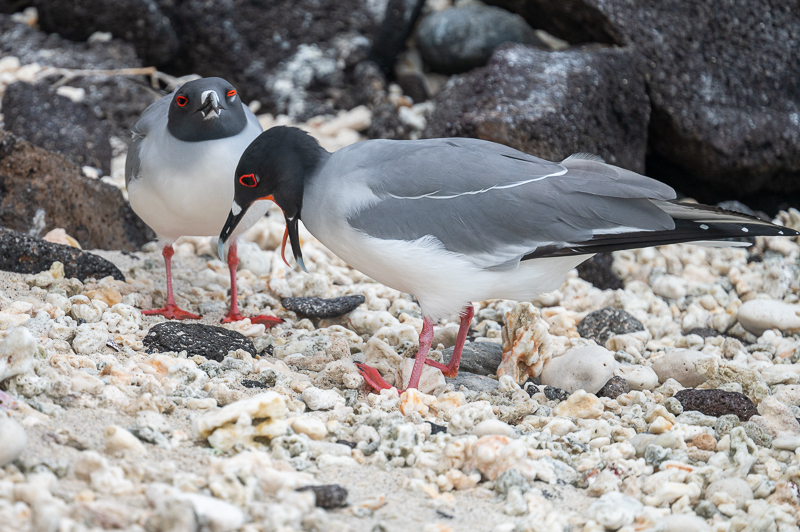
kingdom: Animalia
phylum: Chordata
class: Aves
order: Charadriiformes
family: Laridae
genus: Creagrus
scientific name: Creagrus furcatus
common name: Swallow-tailed gull
